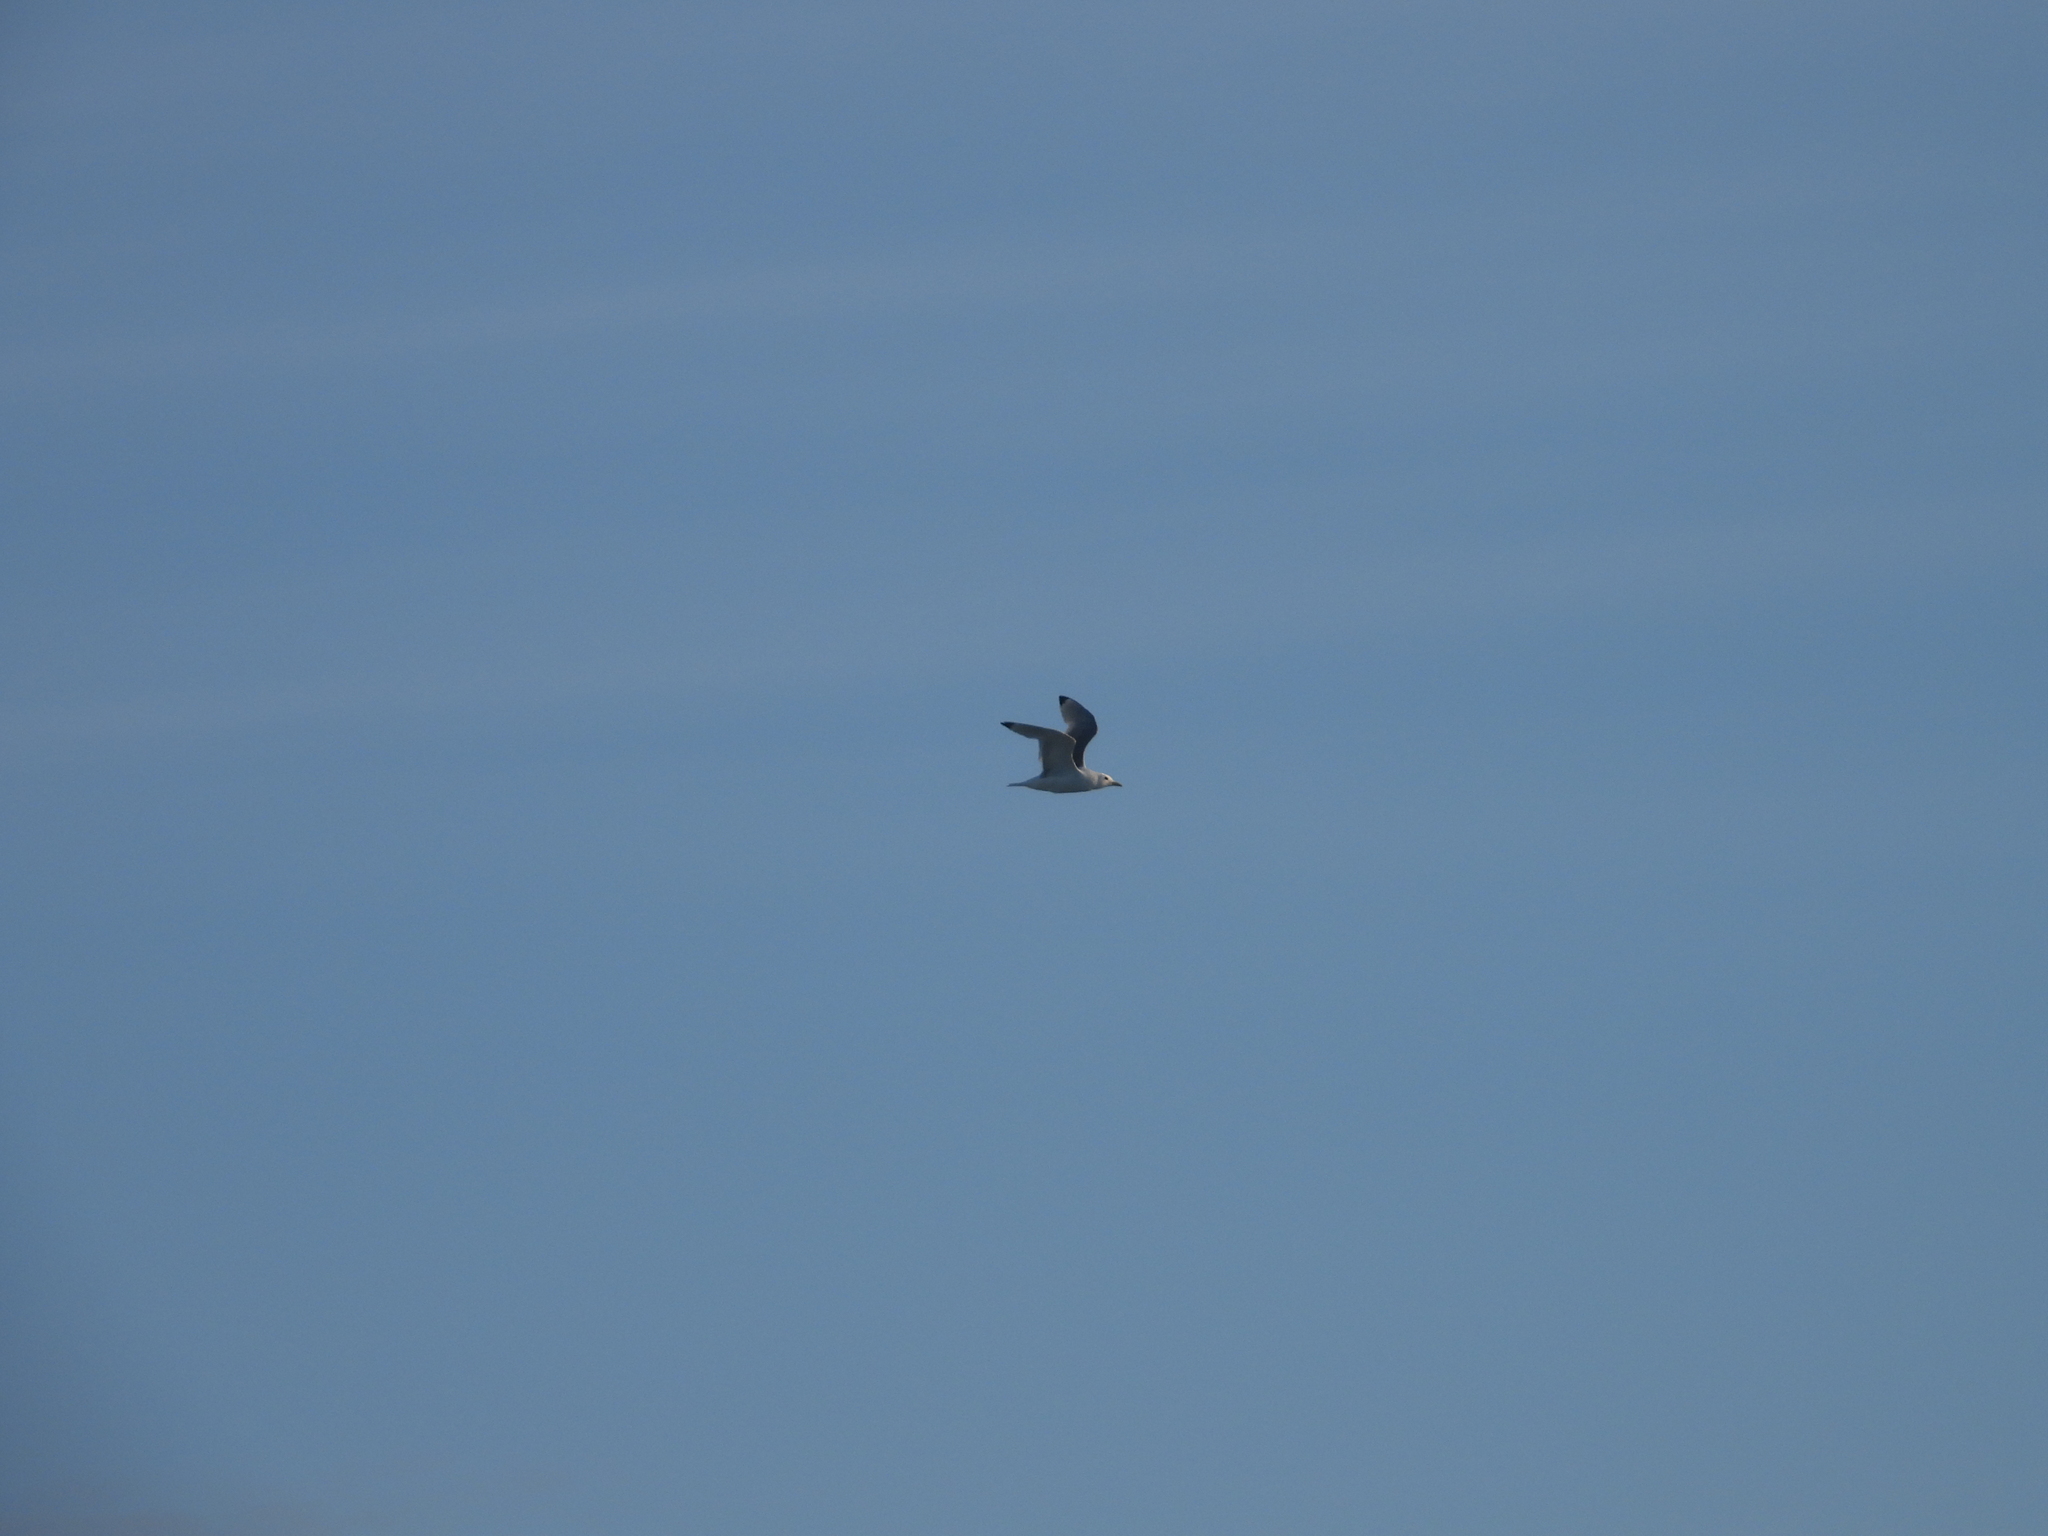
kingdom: Animalia
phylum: Chordata
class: Aves
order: Charadriiformes
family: Laridae
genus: Rissa
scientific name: Rissa tridactyla
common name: Black-legged kittiwake
